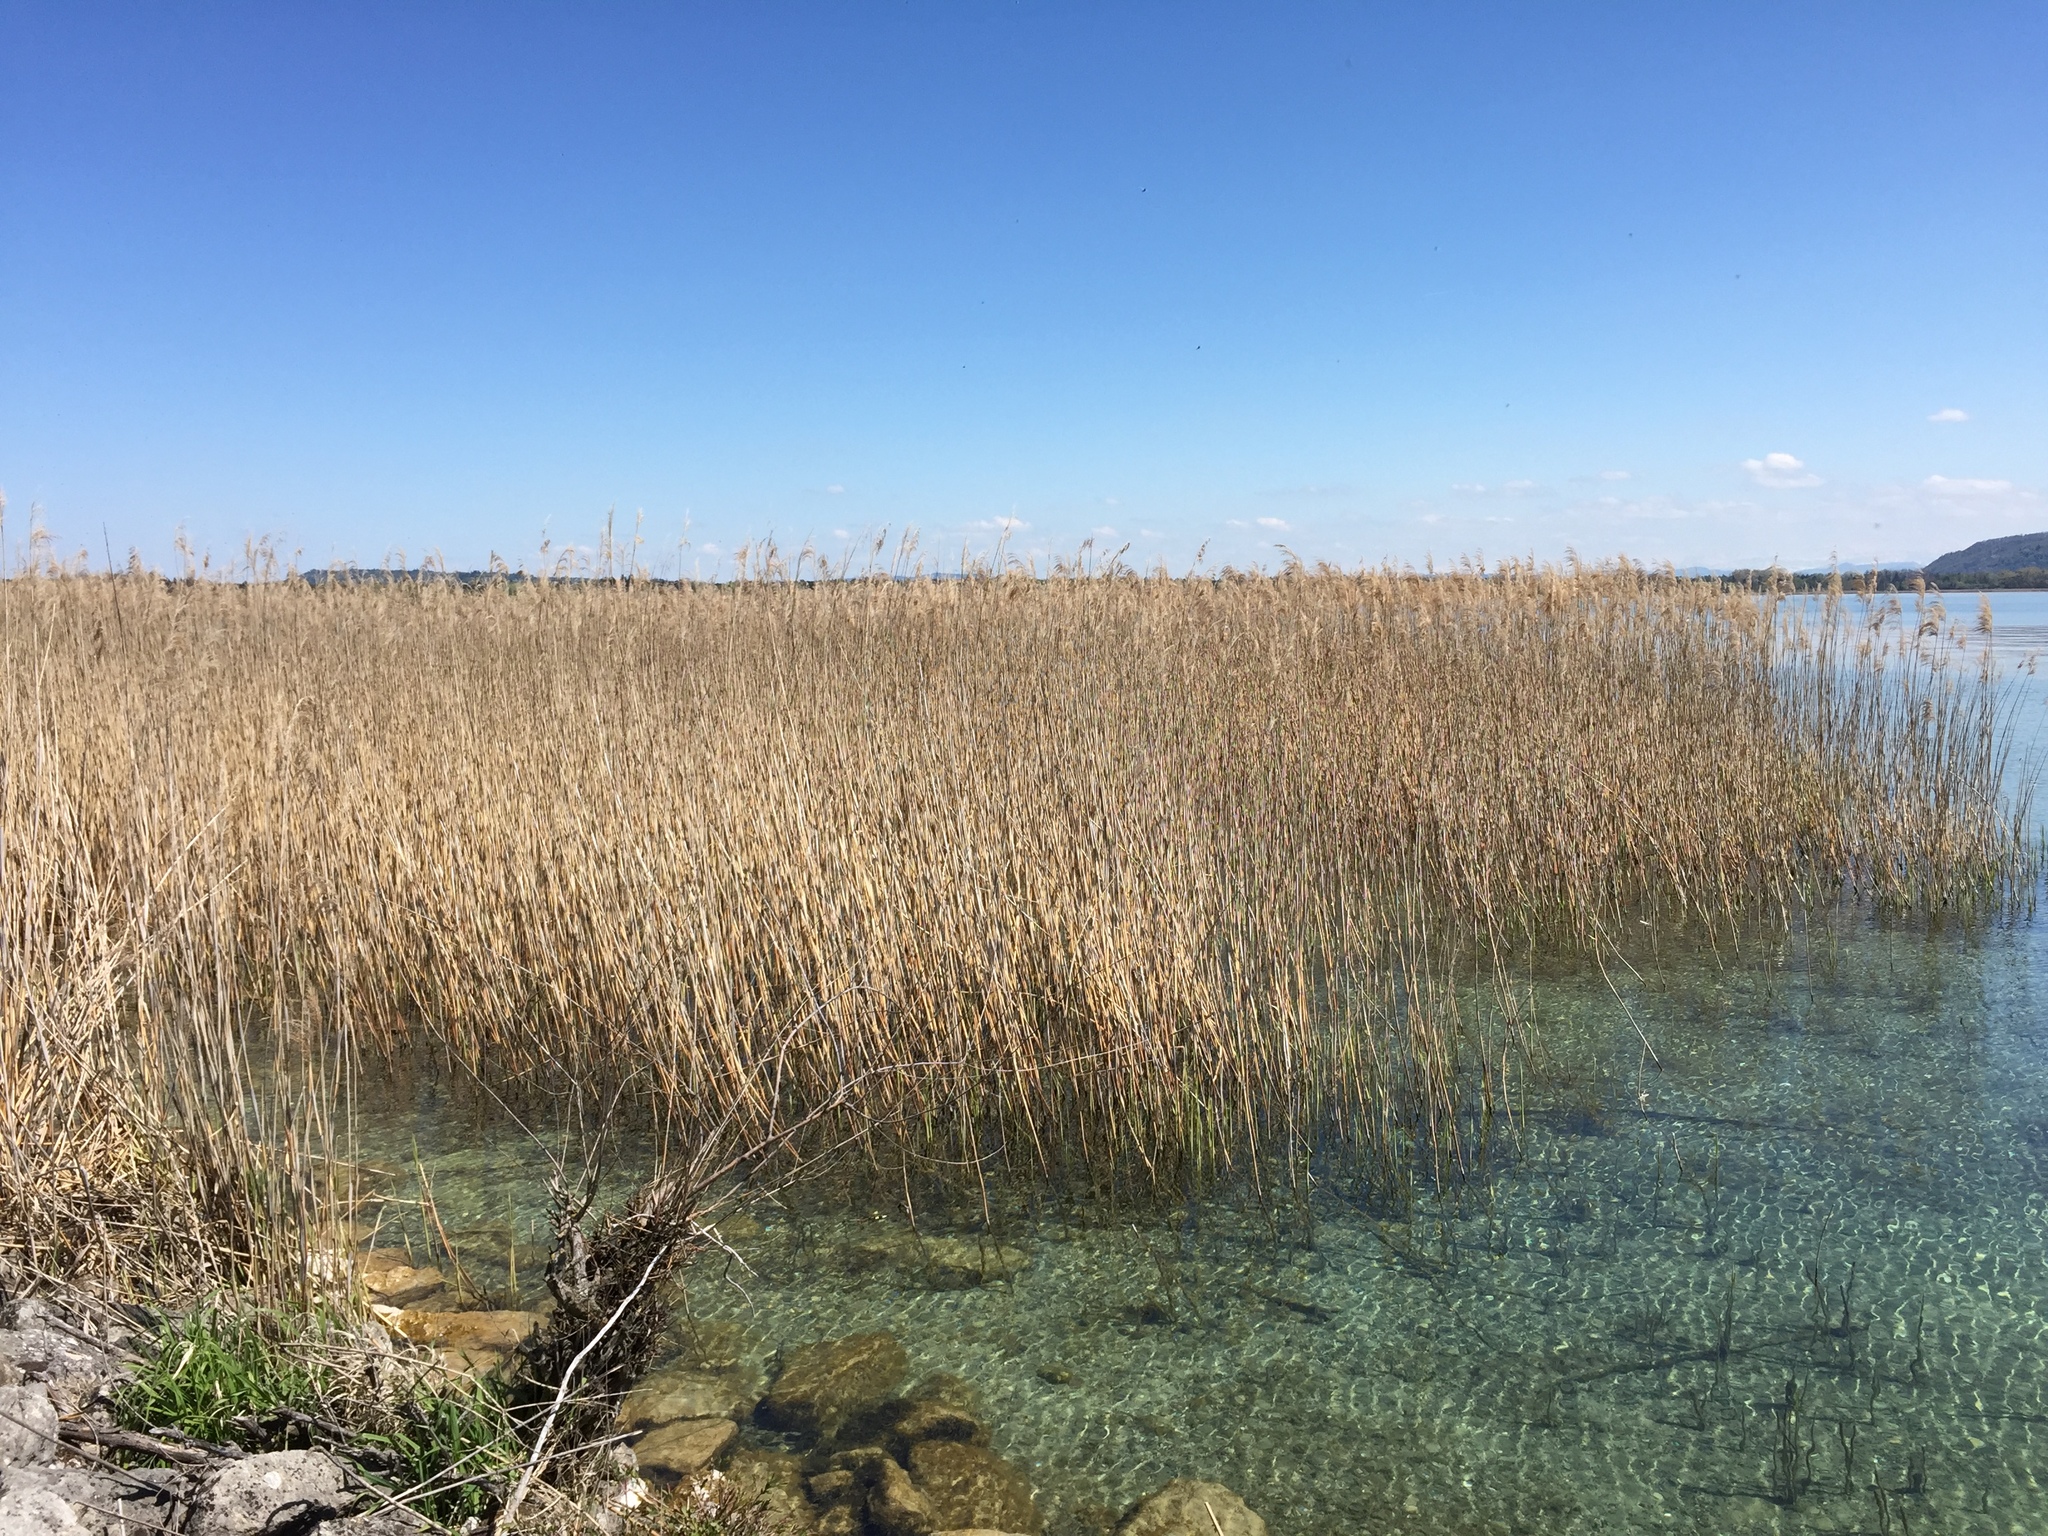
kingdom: Plantae
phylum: Tracheophyta
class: Liliopsida
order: Poales
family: Poaceae
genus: Phragmites
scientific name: Phragmites australis
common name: Common reed
